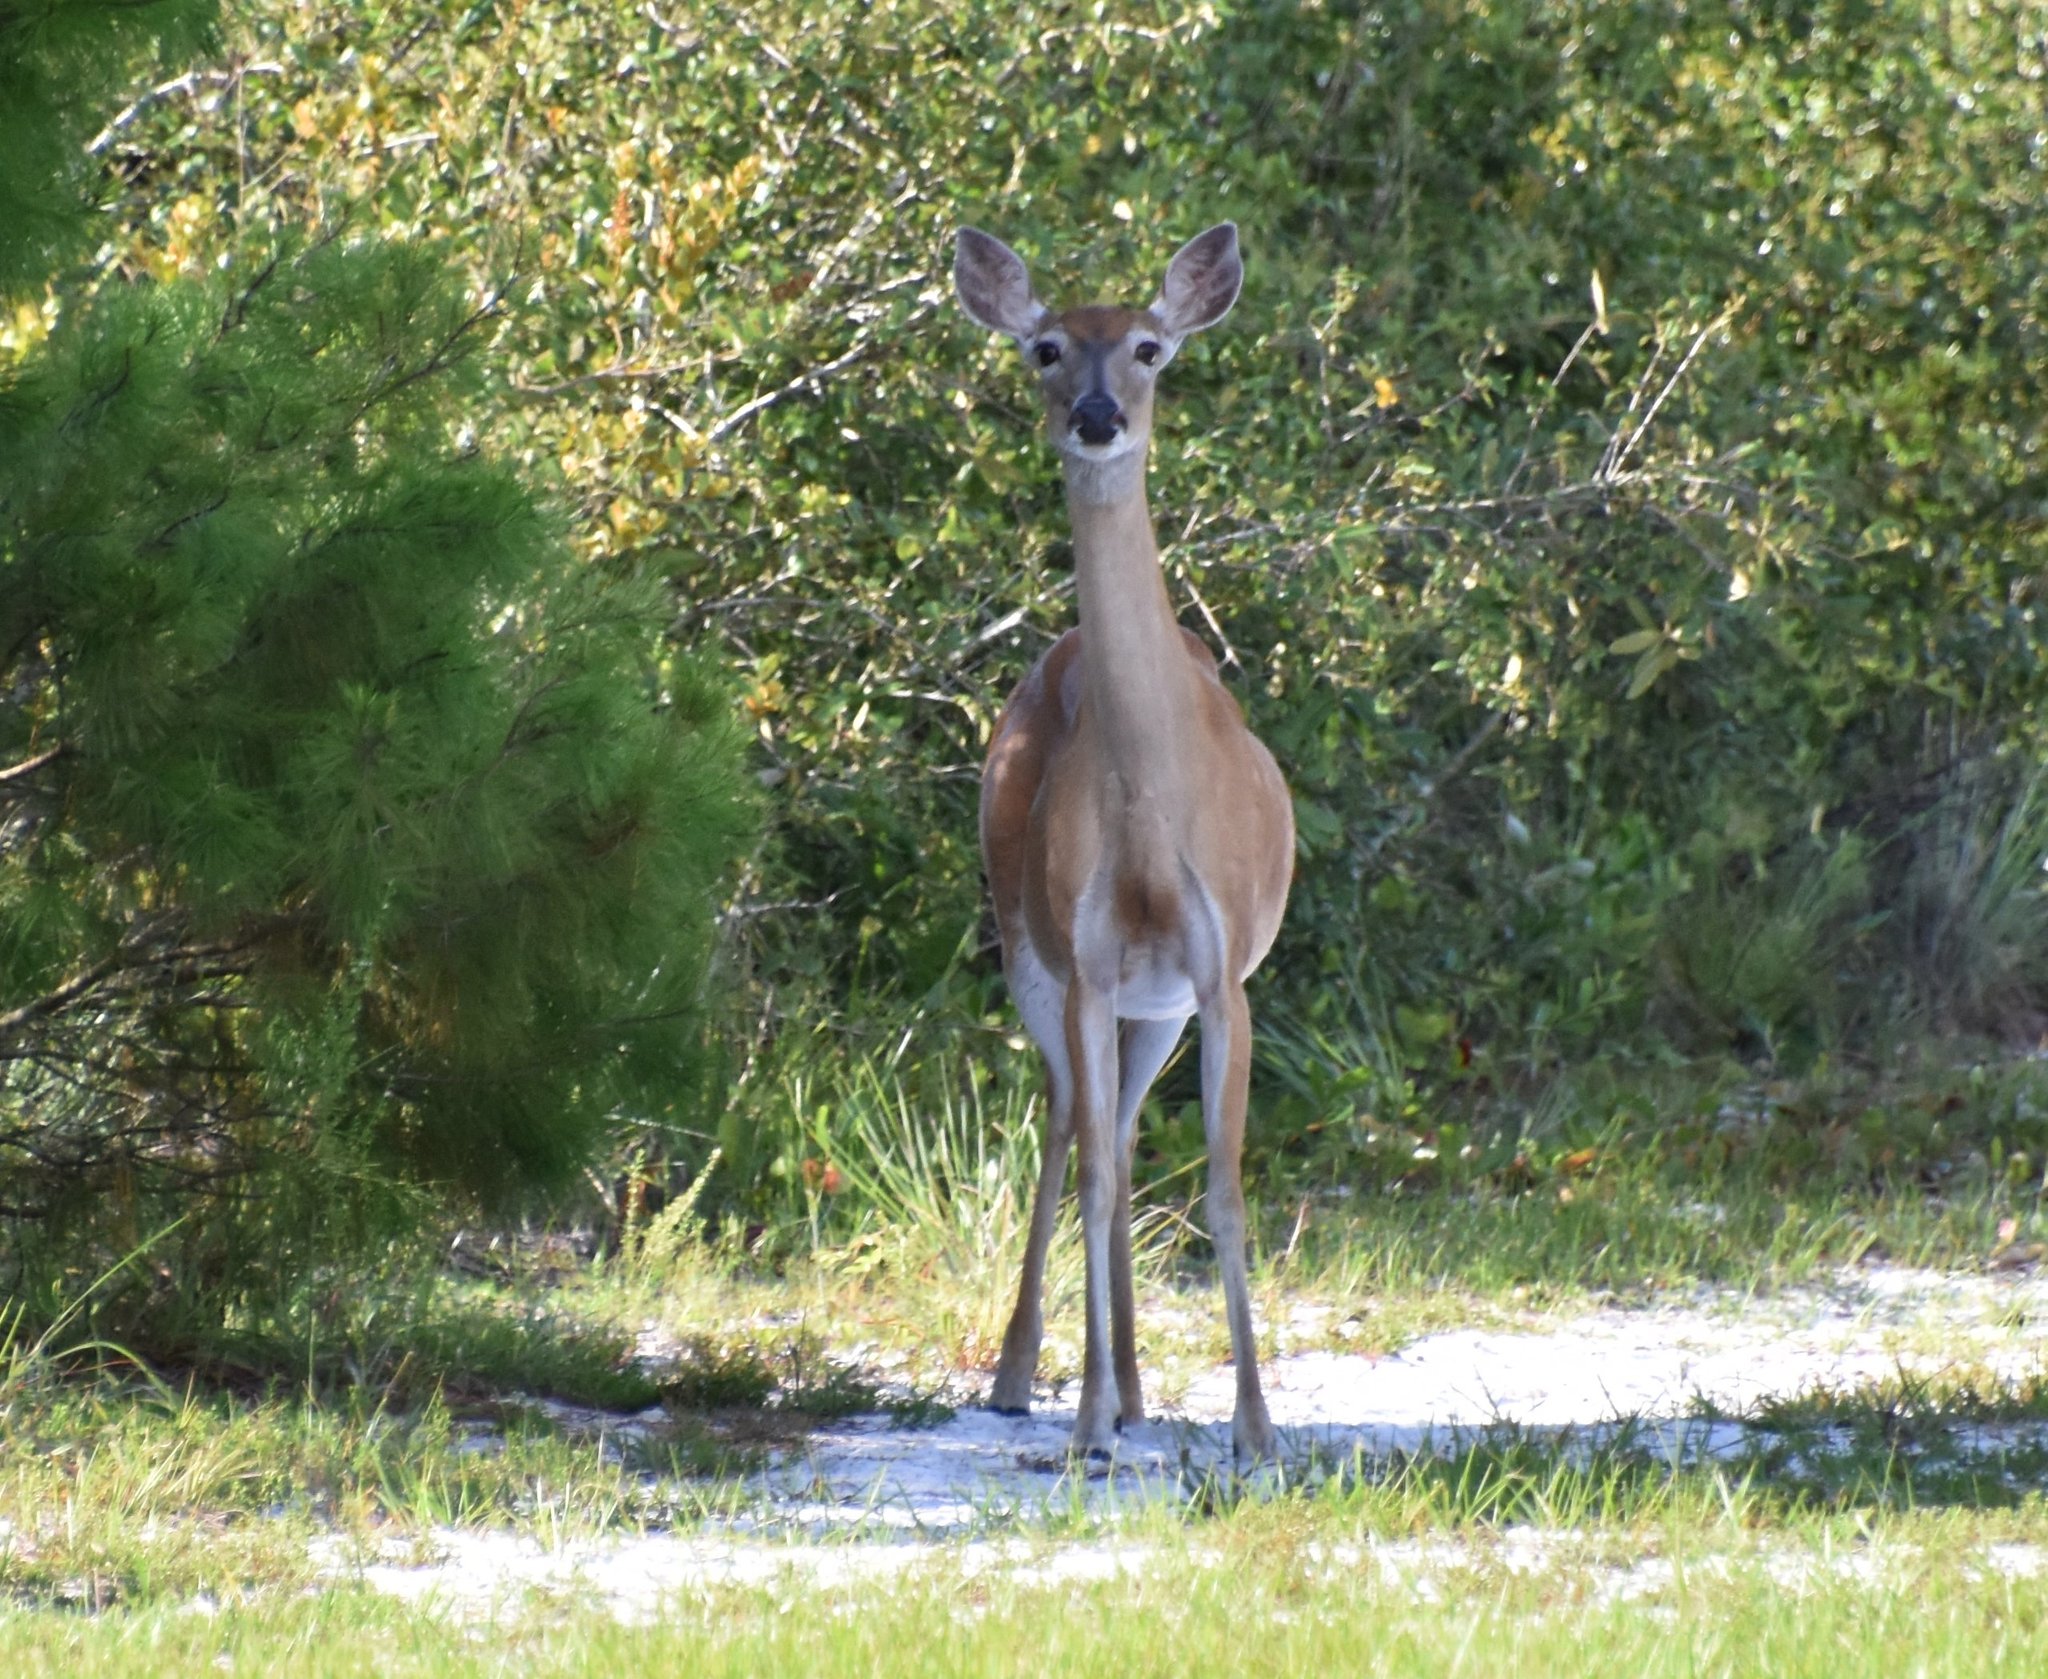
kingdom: Animalia
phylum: Chordata
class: Mammalia
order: Artiodactyla
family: Cervidae
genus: Odocoileus
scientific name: Odocoileus virginianus
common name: White-tailed deer
